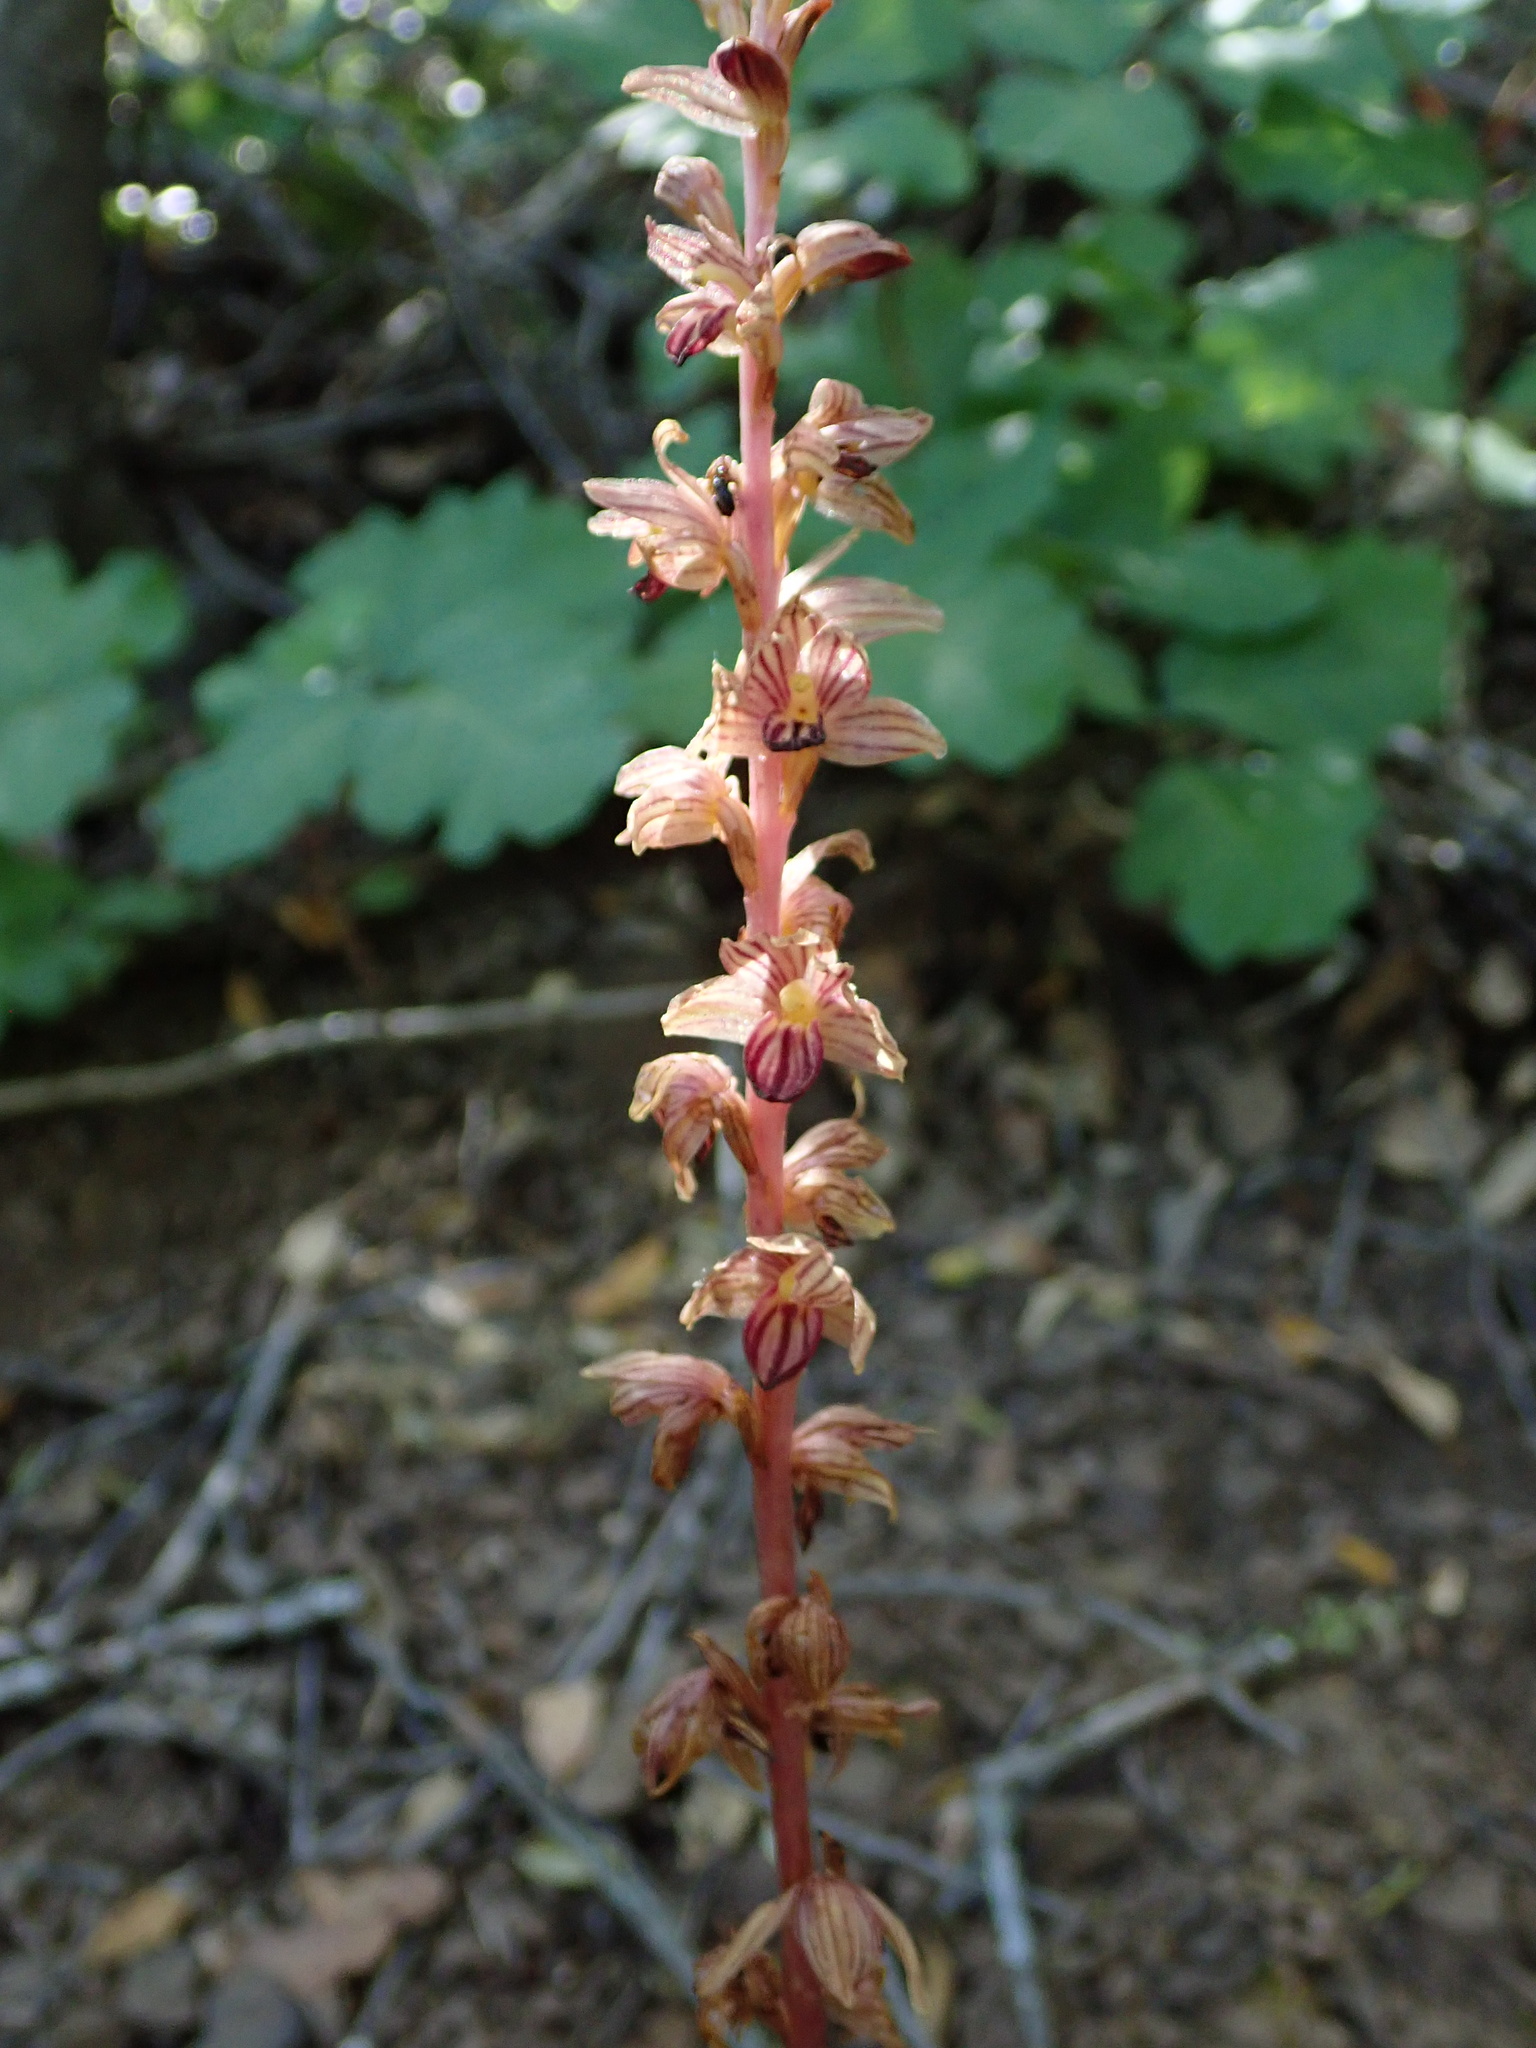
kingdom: Plantae
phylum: Tracheophyta
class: Liliopsida
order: Asparagales
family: Orchidaceae
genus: Corallorhiza
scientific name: Corallorhiza striata
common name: Hooded coralroot
